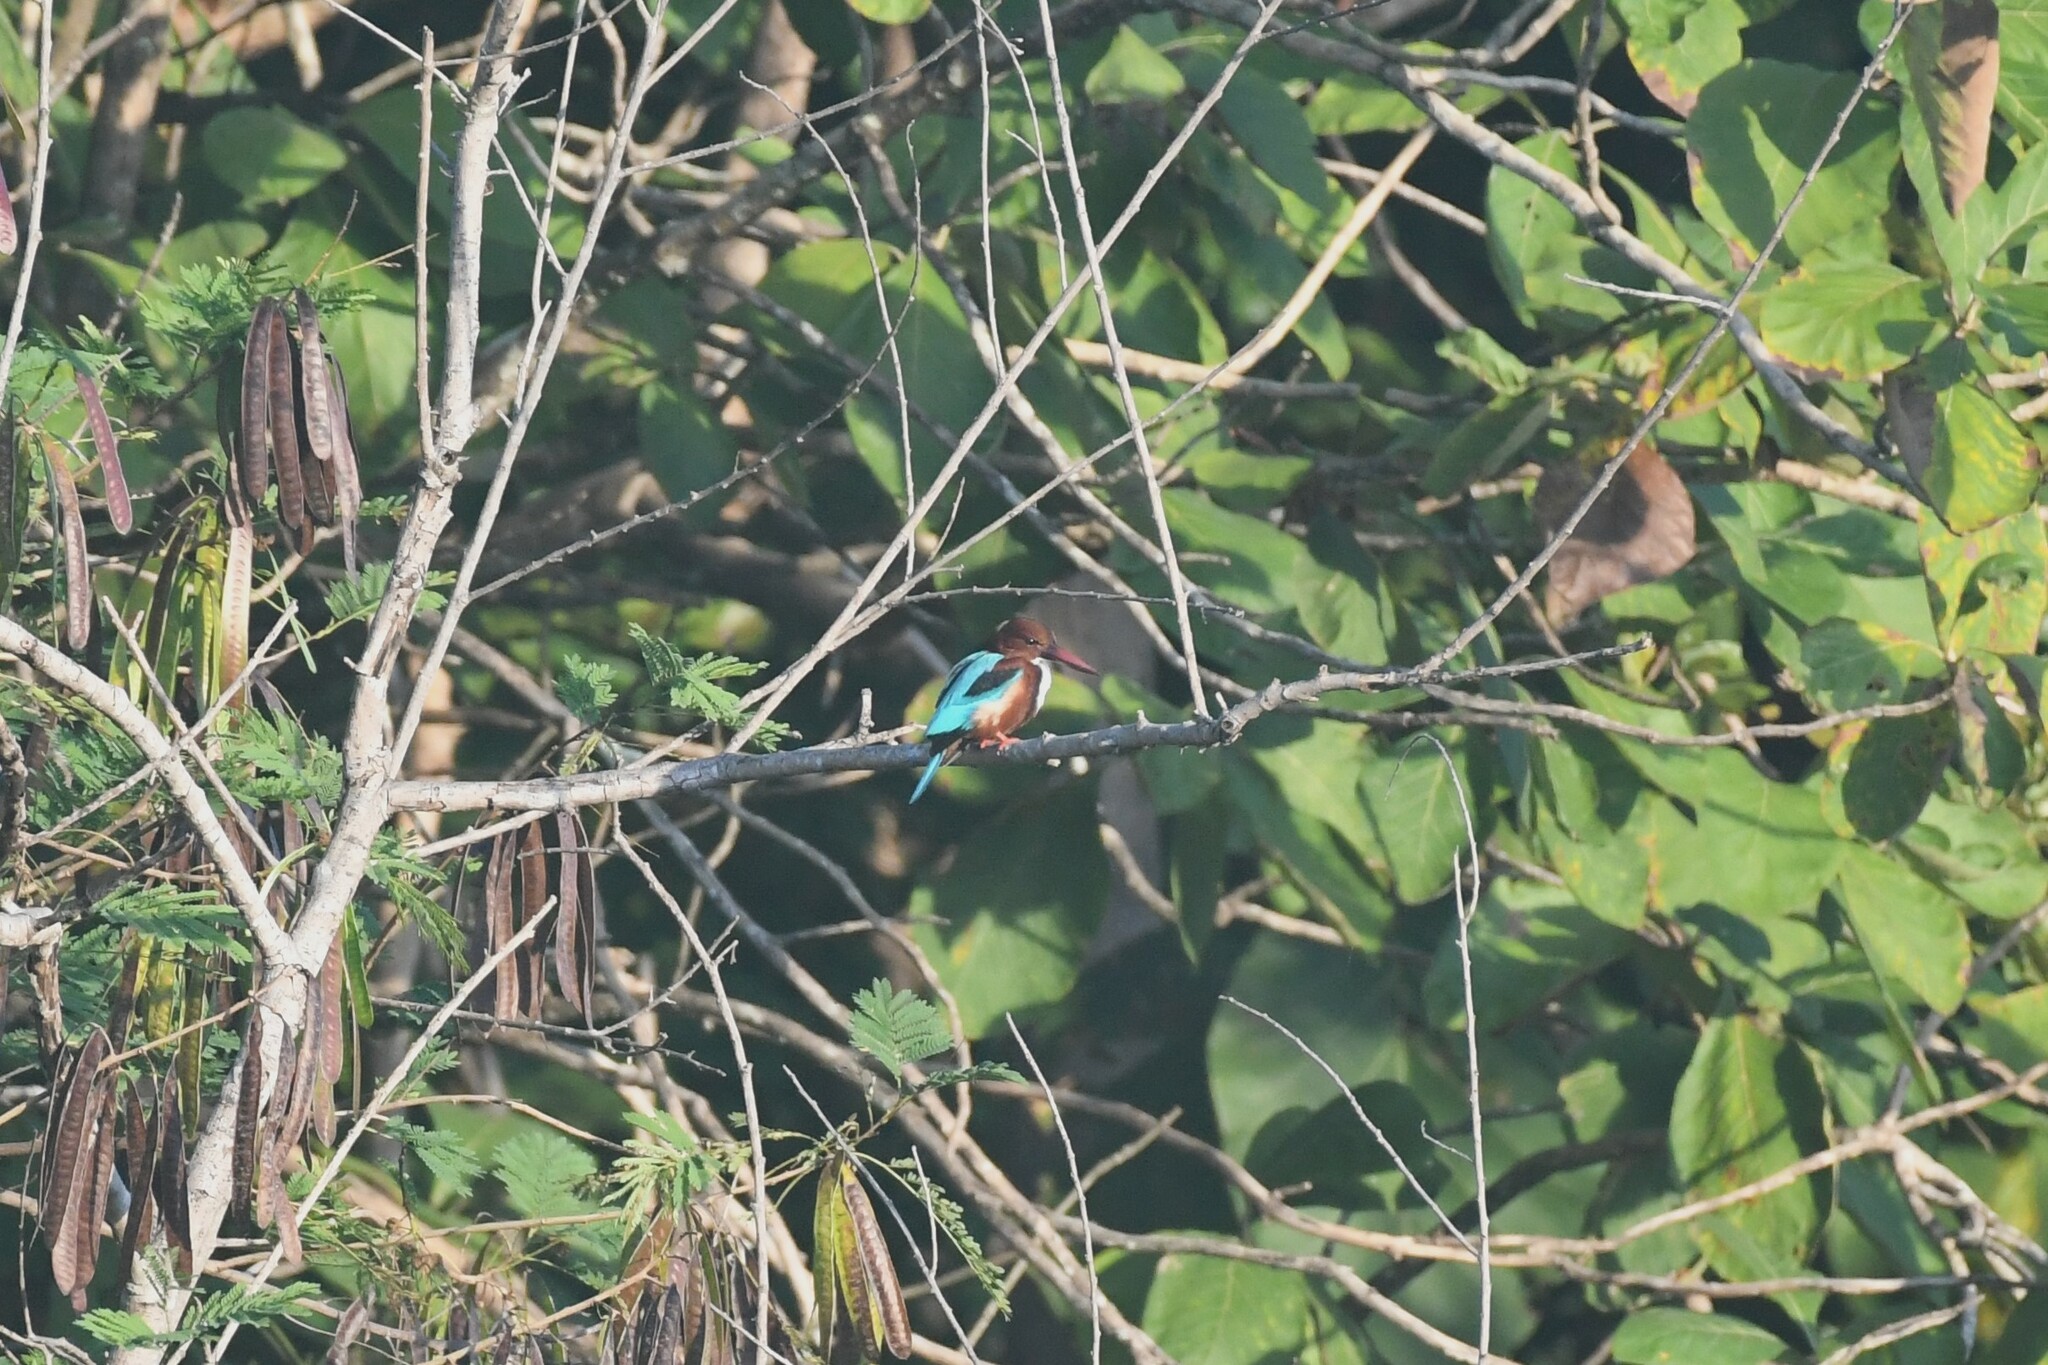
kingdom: Animalia
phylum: Chordata
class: Aves
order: Coraciiformes
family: Alcedinidae
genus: Halcyon
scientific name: Halcyon smyrnensis
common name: White-throated kingfisher
